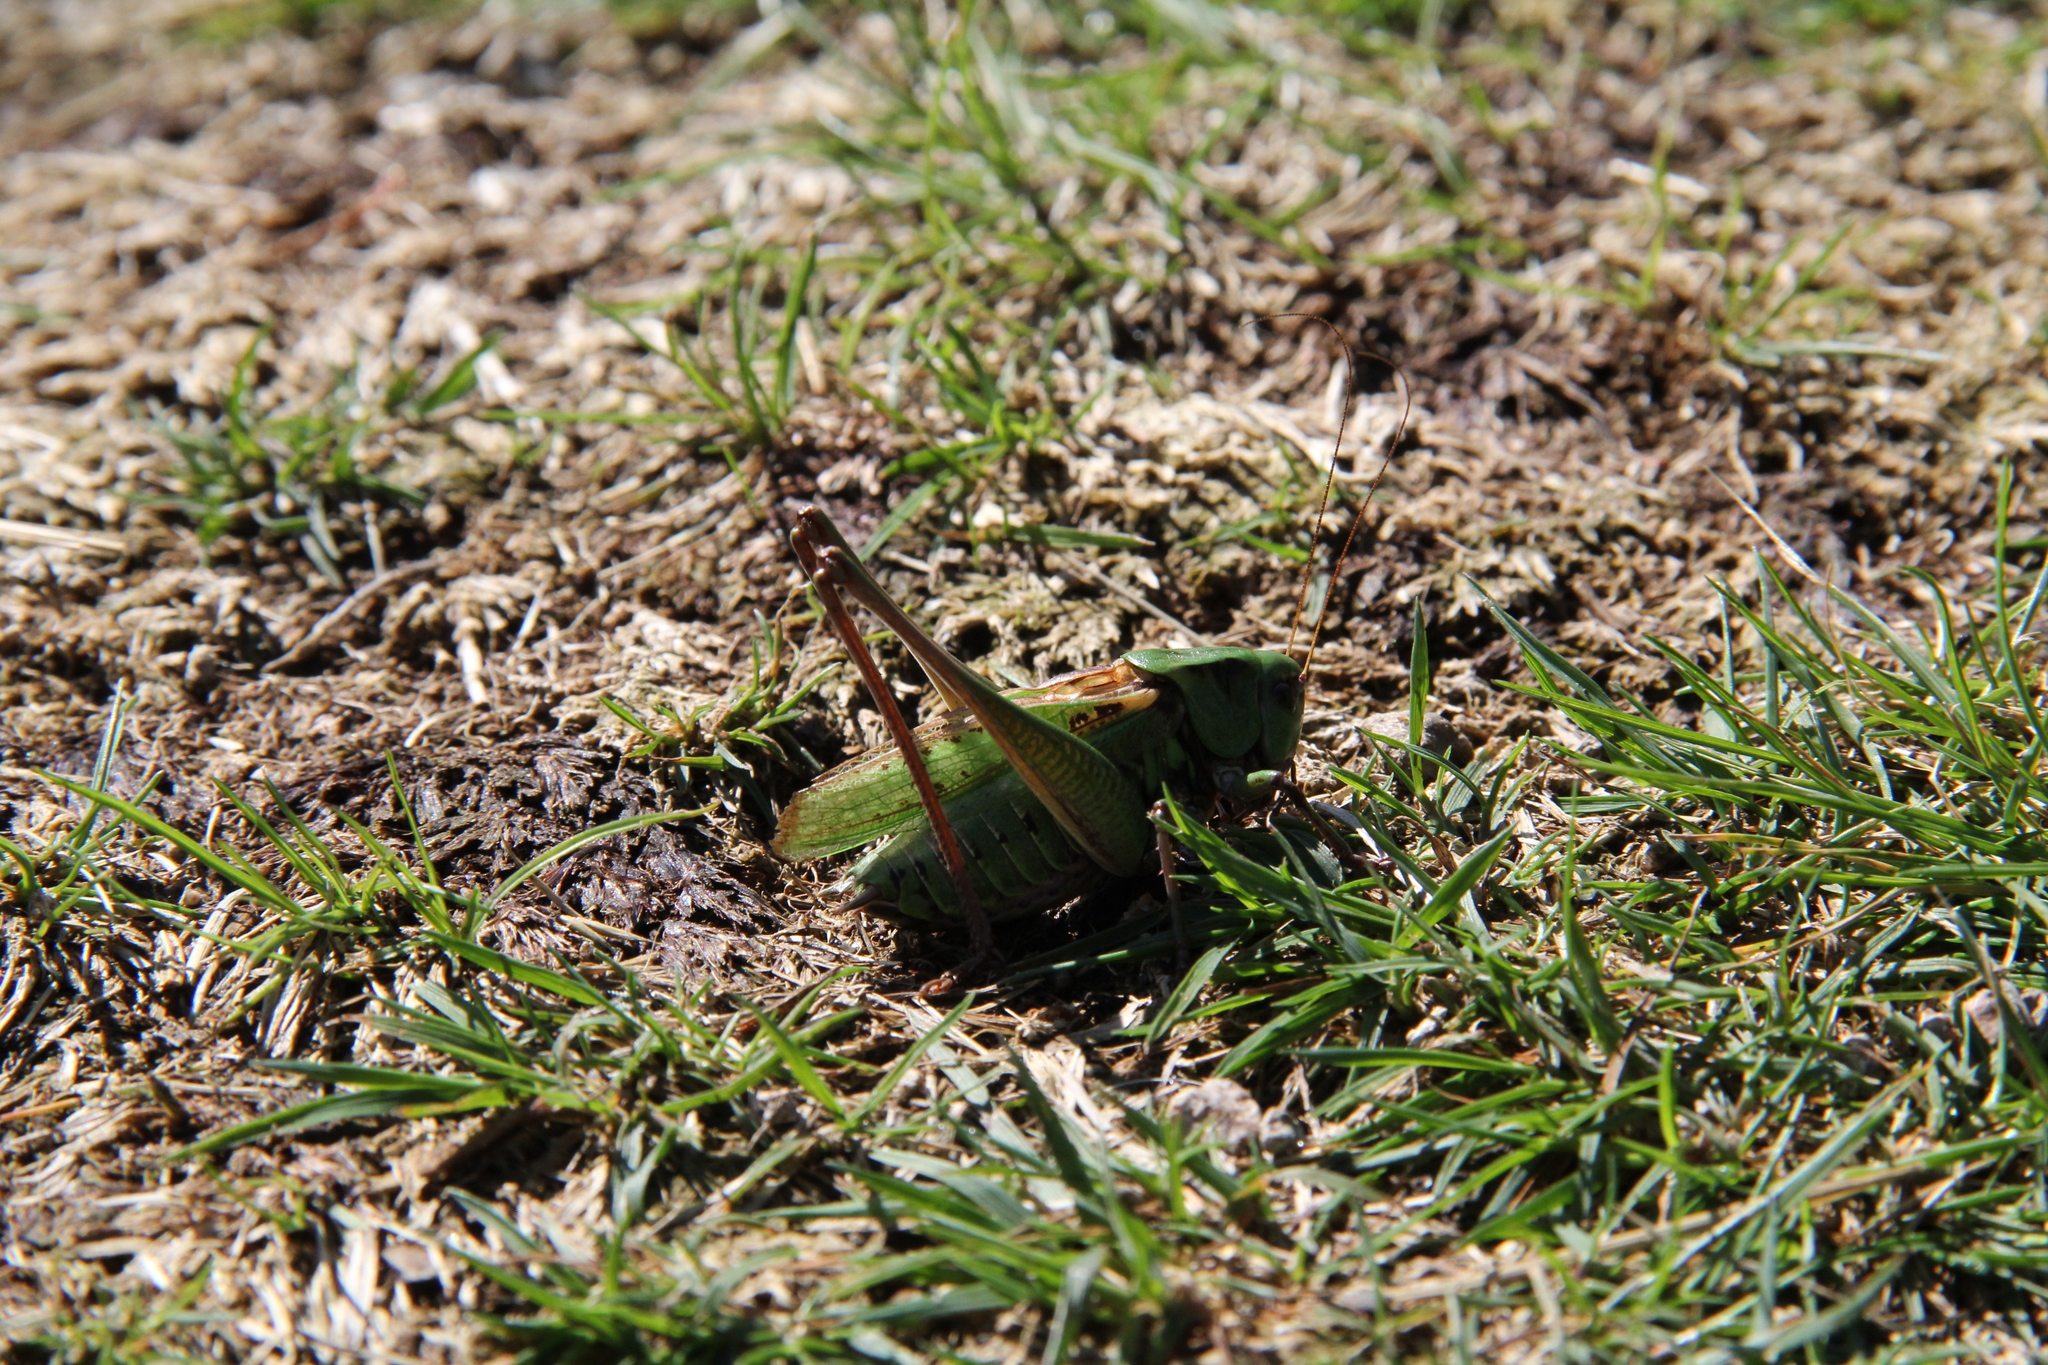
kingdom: Animalia
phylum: Arthropoda
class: Insecta
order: Orthoptera
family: Tettigoniidae
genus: Decticus
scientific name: Decticus verrucivorus
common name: Wart-biter
